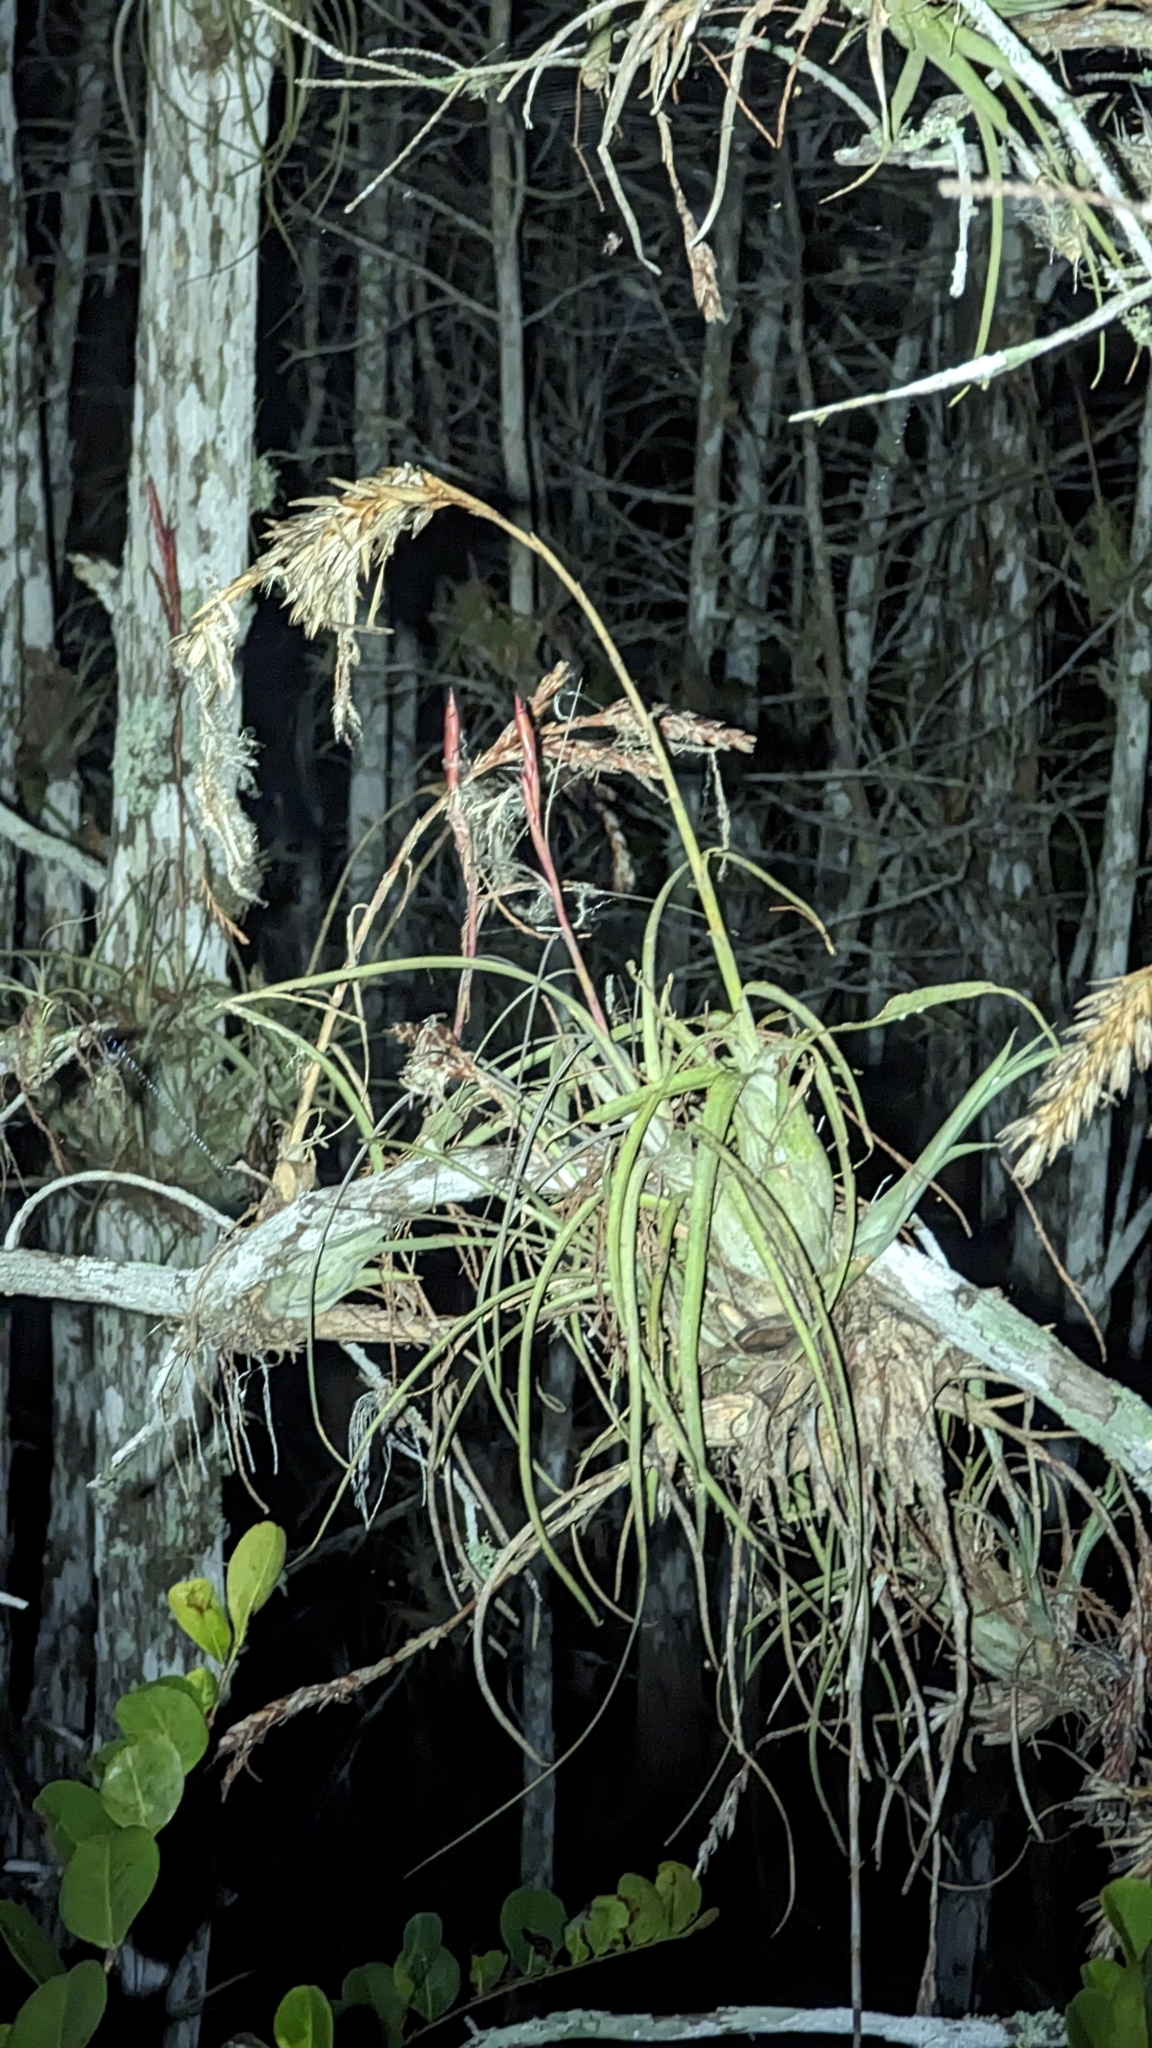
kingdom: Plantae
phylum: Tracheophyta
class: Liliopsida
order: Poales
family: Bromeliaceae
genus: Tillandsia
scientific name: Tillandsia balbisiana
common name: Northern needleleaf
